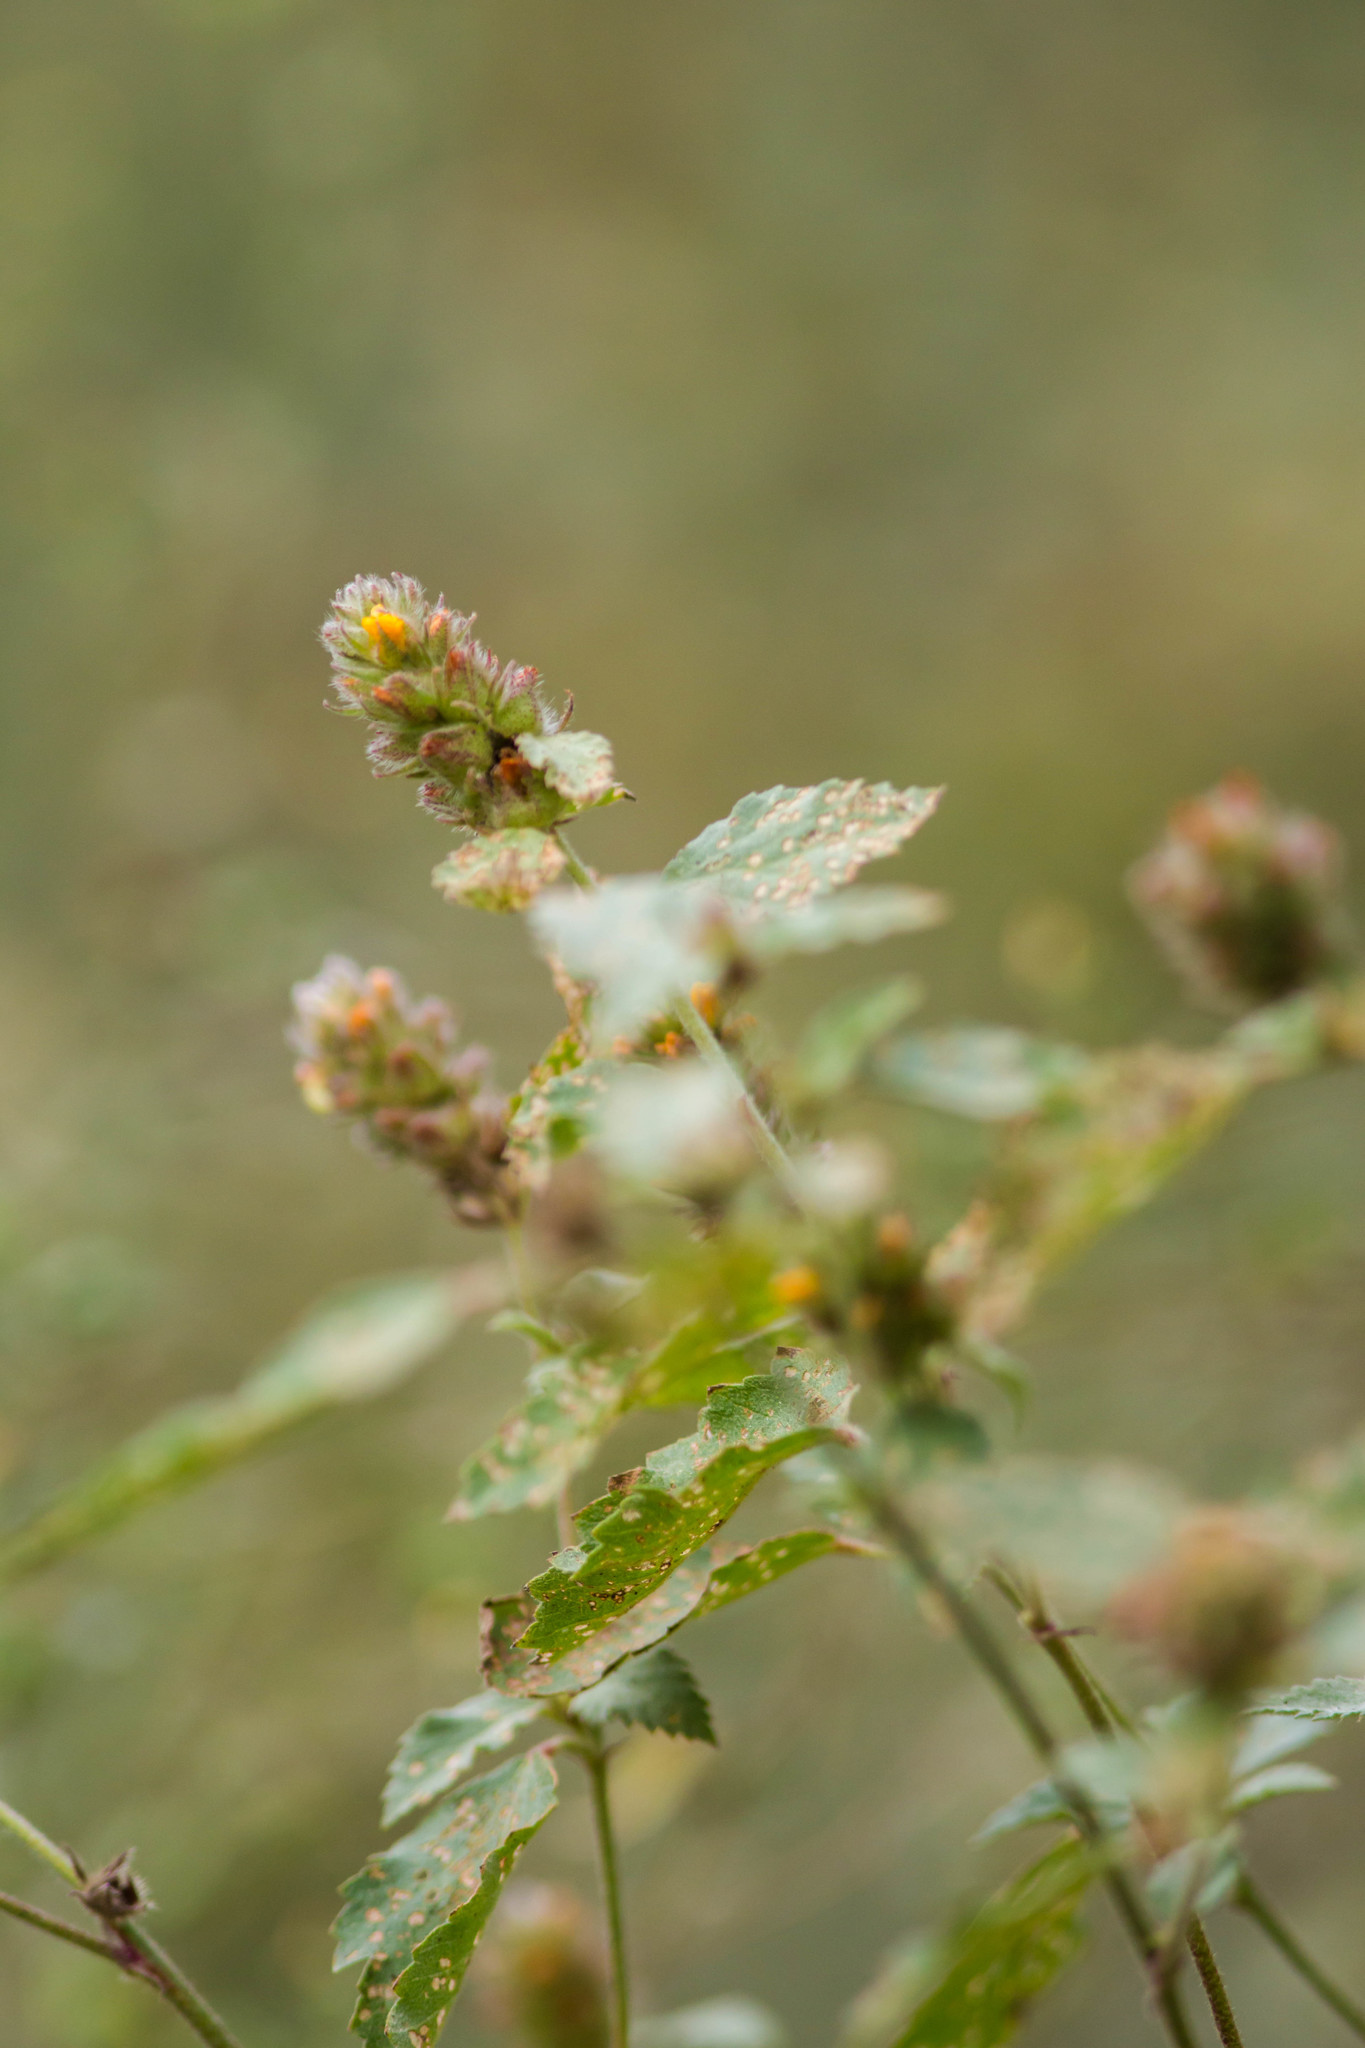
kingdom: Plantae
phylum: Tracheophyta
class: Magnoliopsida
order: Malvales
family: Malvaceae
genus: Malvastrum
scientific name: Malvastrum americanum
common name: Spiked malvastrum
